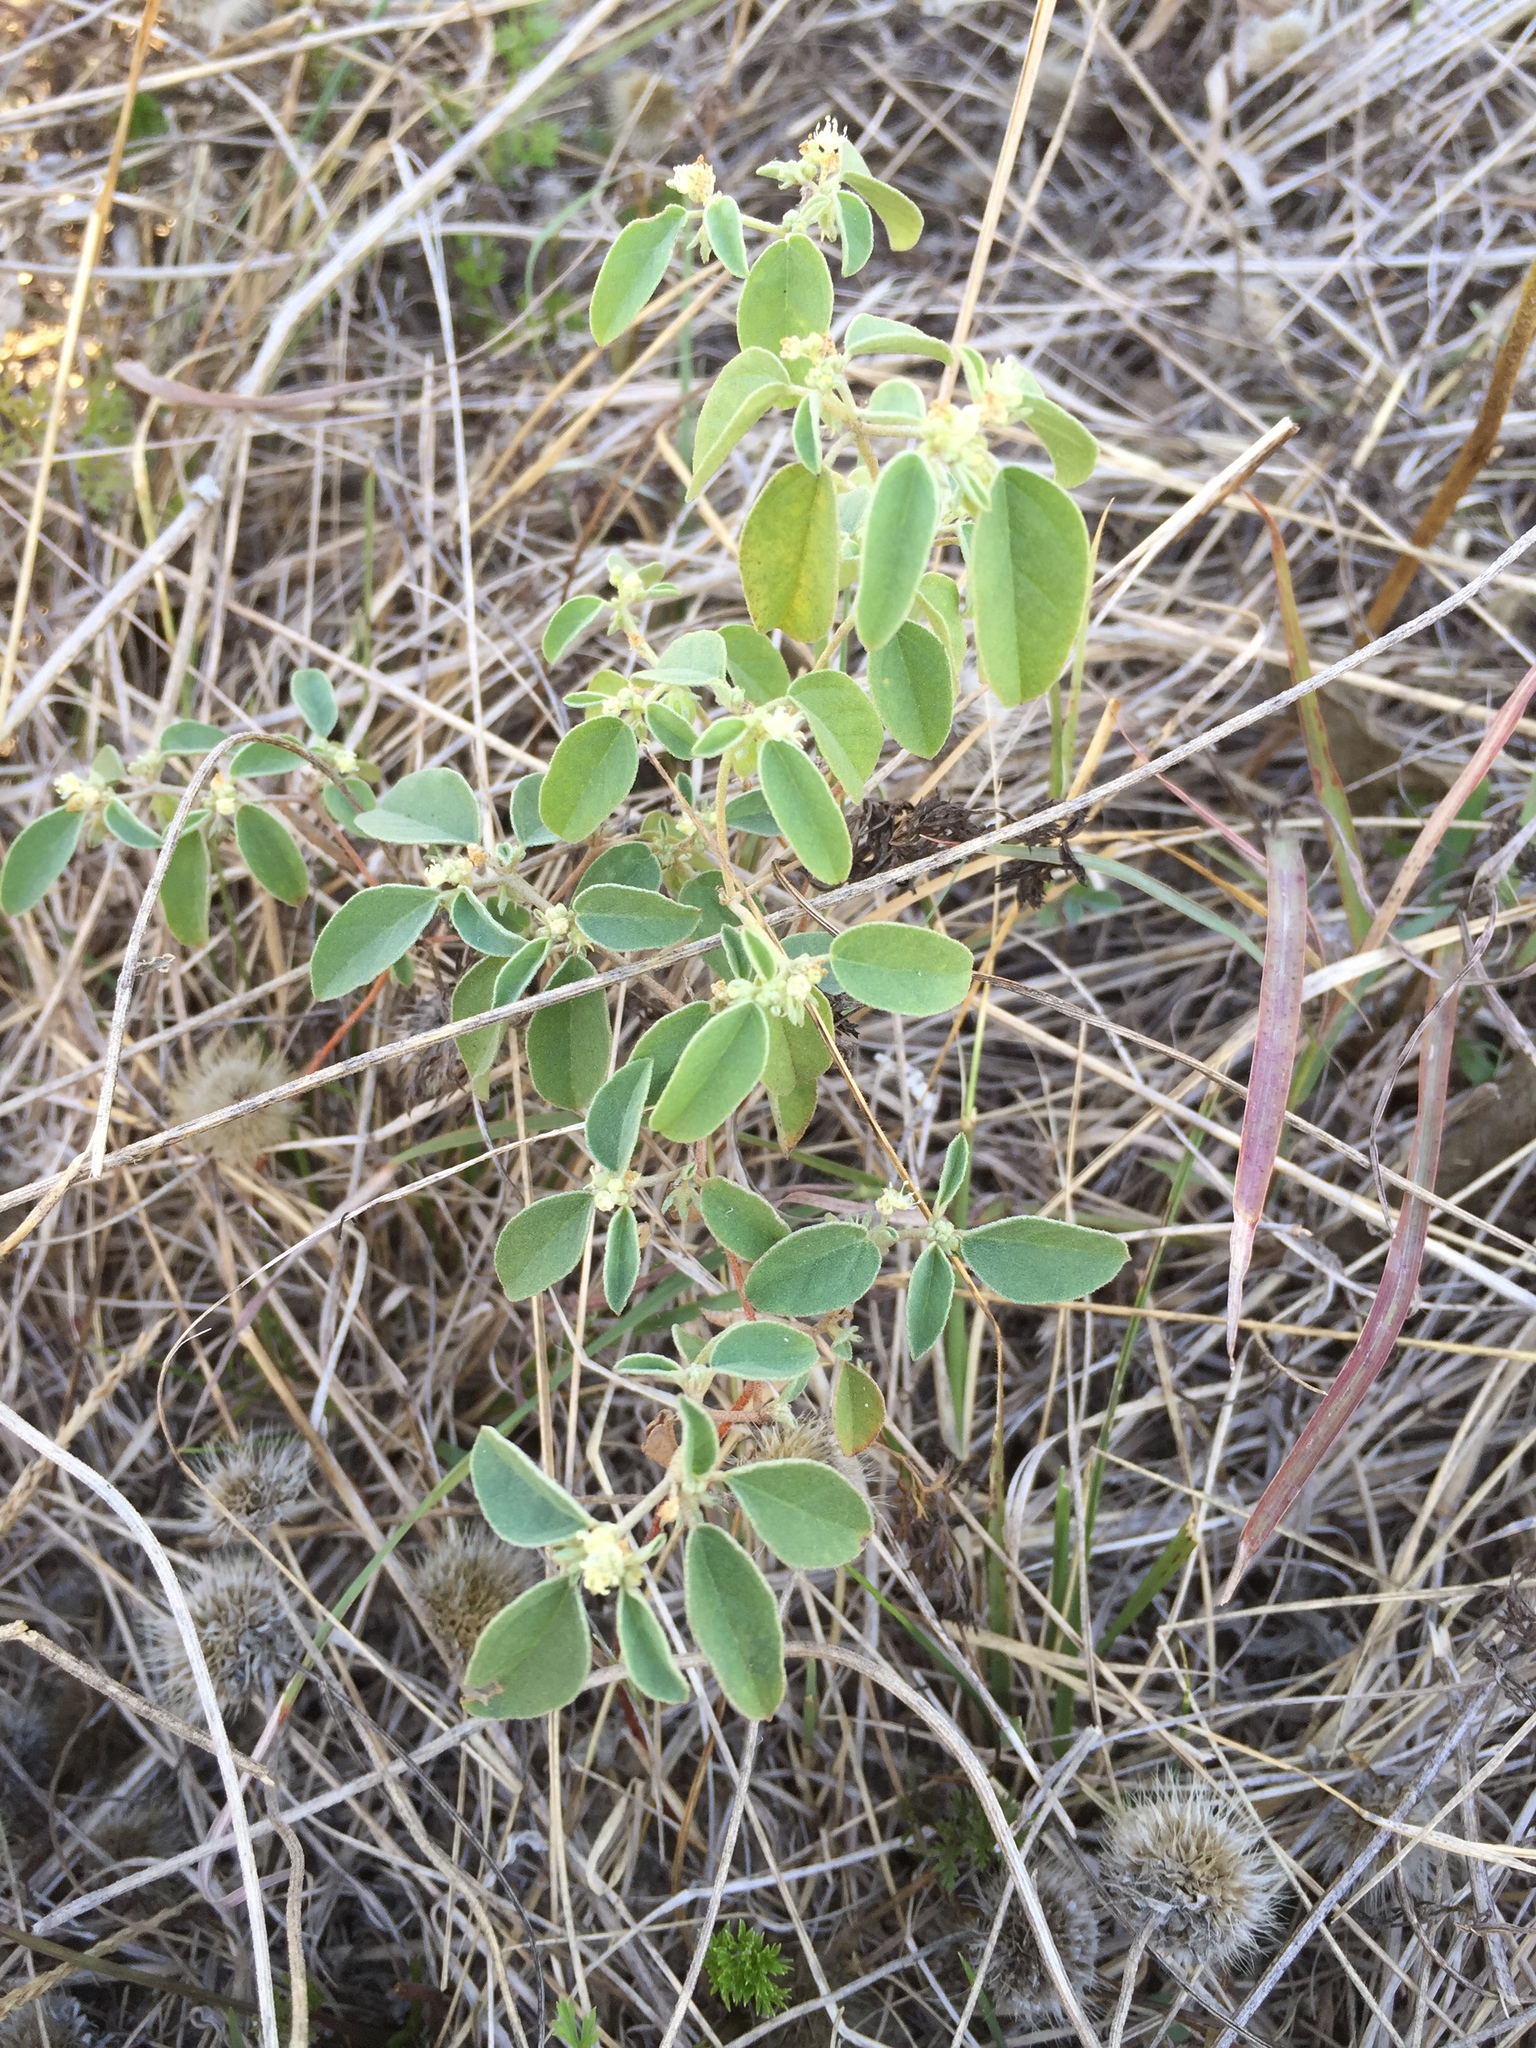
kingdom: Plantae
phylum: Tracheophyta
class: Magnoliopsida
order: Malpighiales
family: Euphorbiaceae
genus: Croton
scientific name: Croton monanthogynus
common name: One-seed croton
